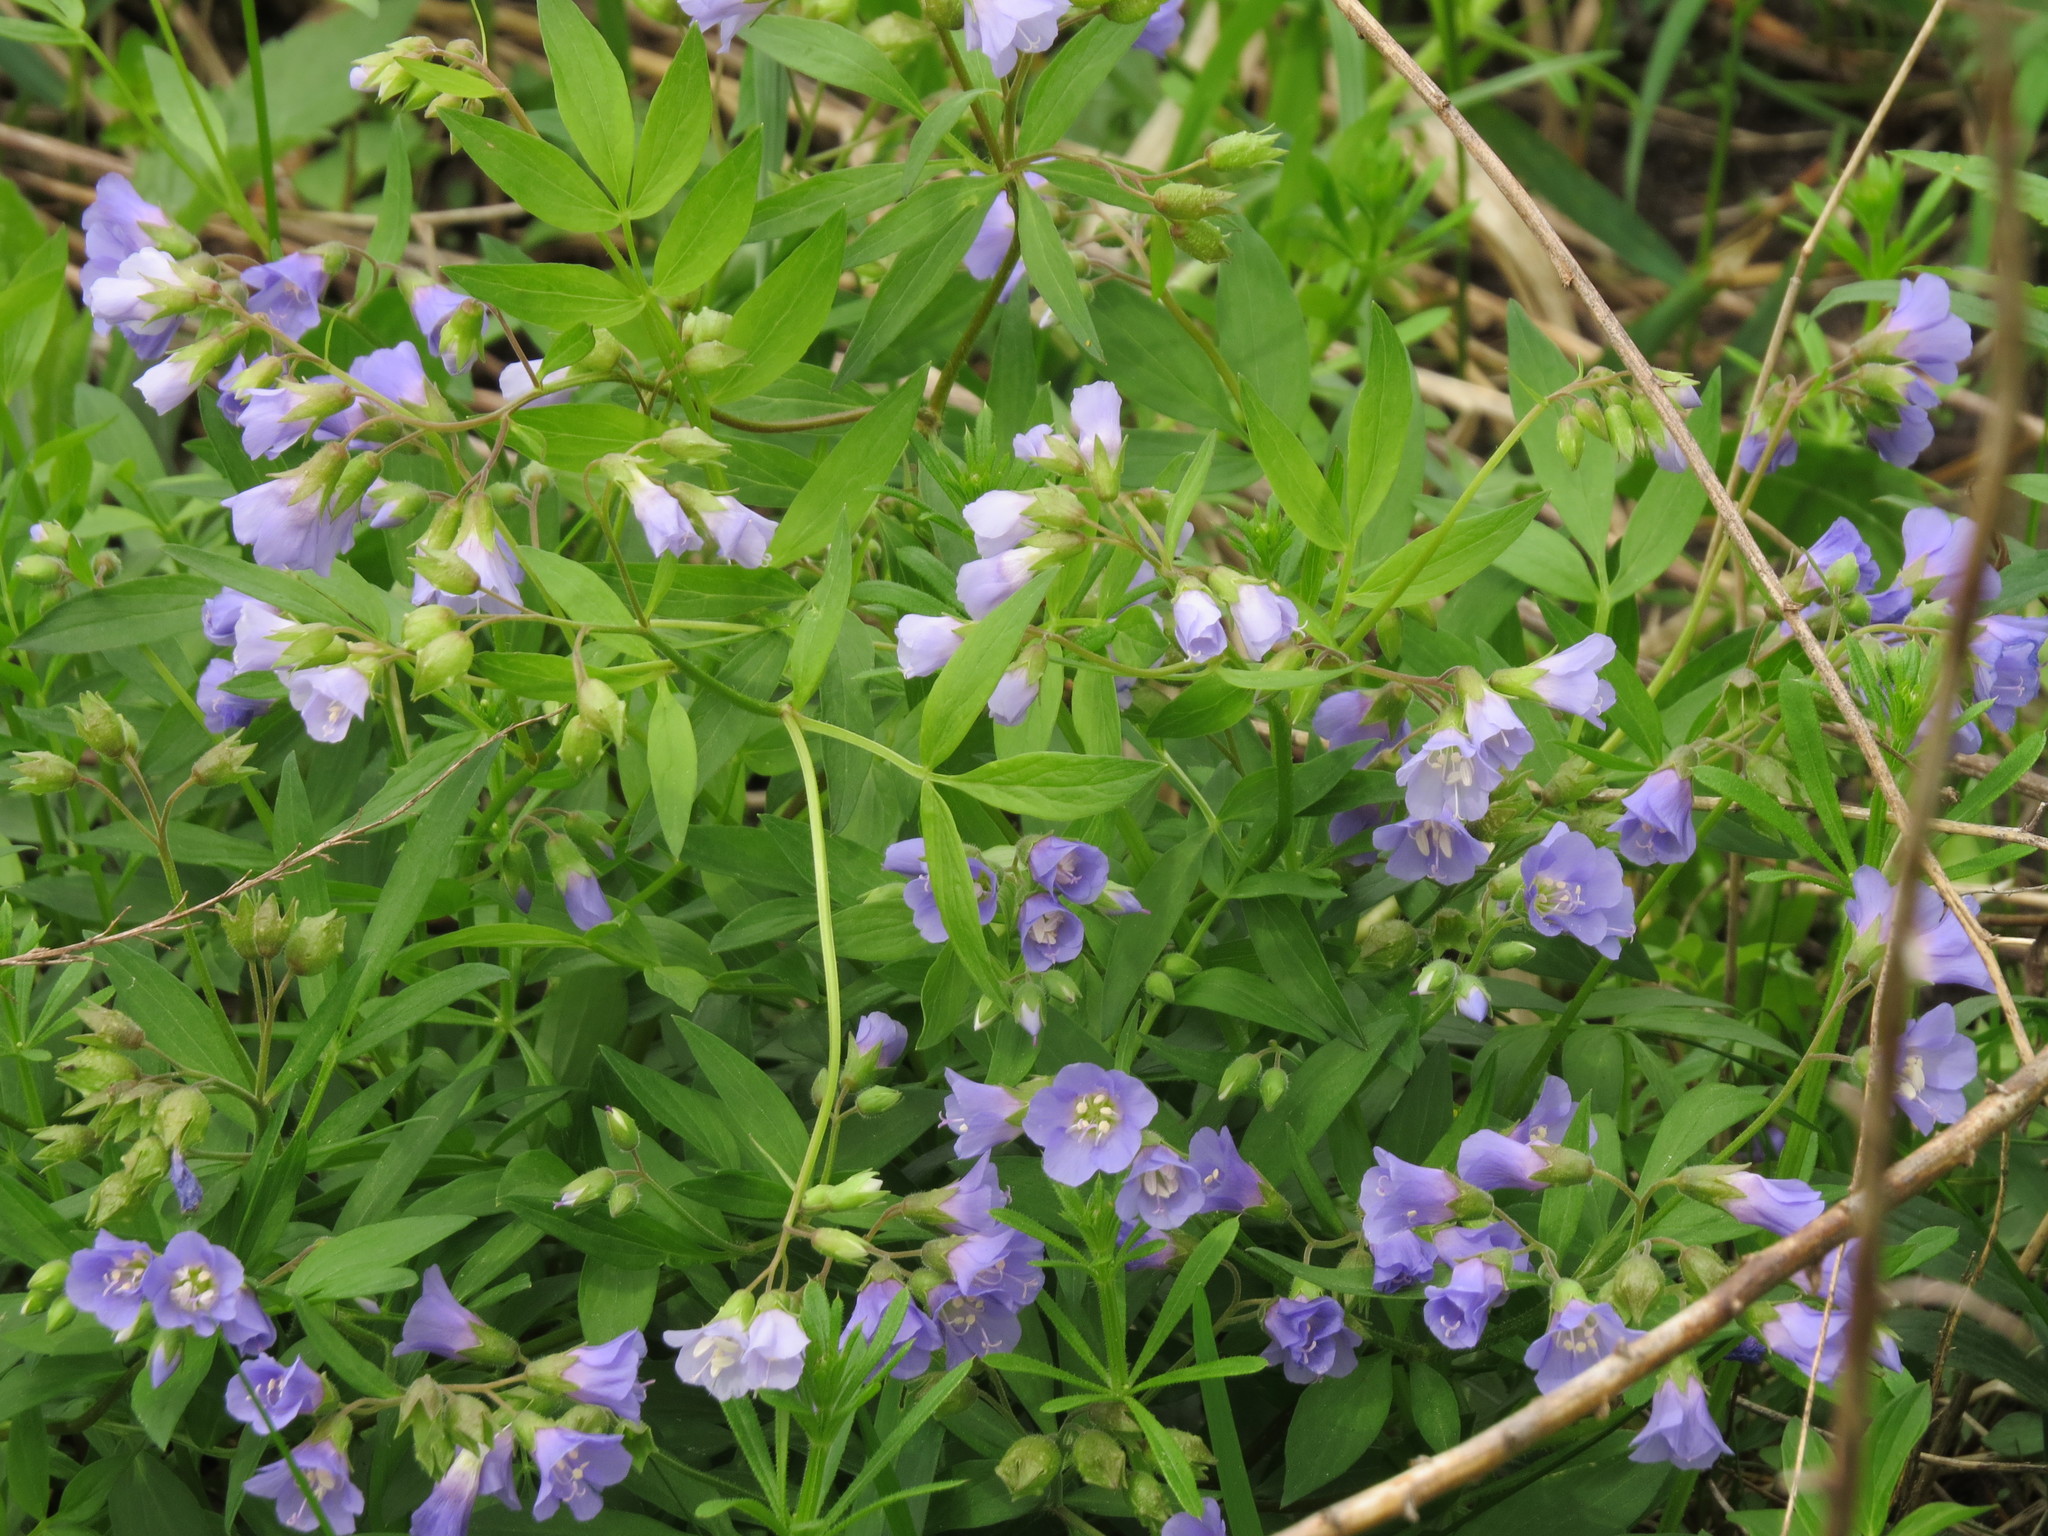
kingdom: Plantae
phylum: Tracheophyta
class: Magnoliopsida
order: Ericales
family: Polemoniaceae
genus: Polemonium
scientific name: Polemonium reptans
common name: Creeping jacob's-ladder
